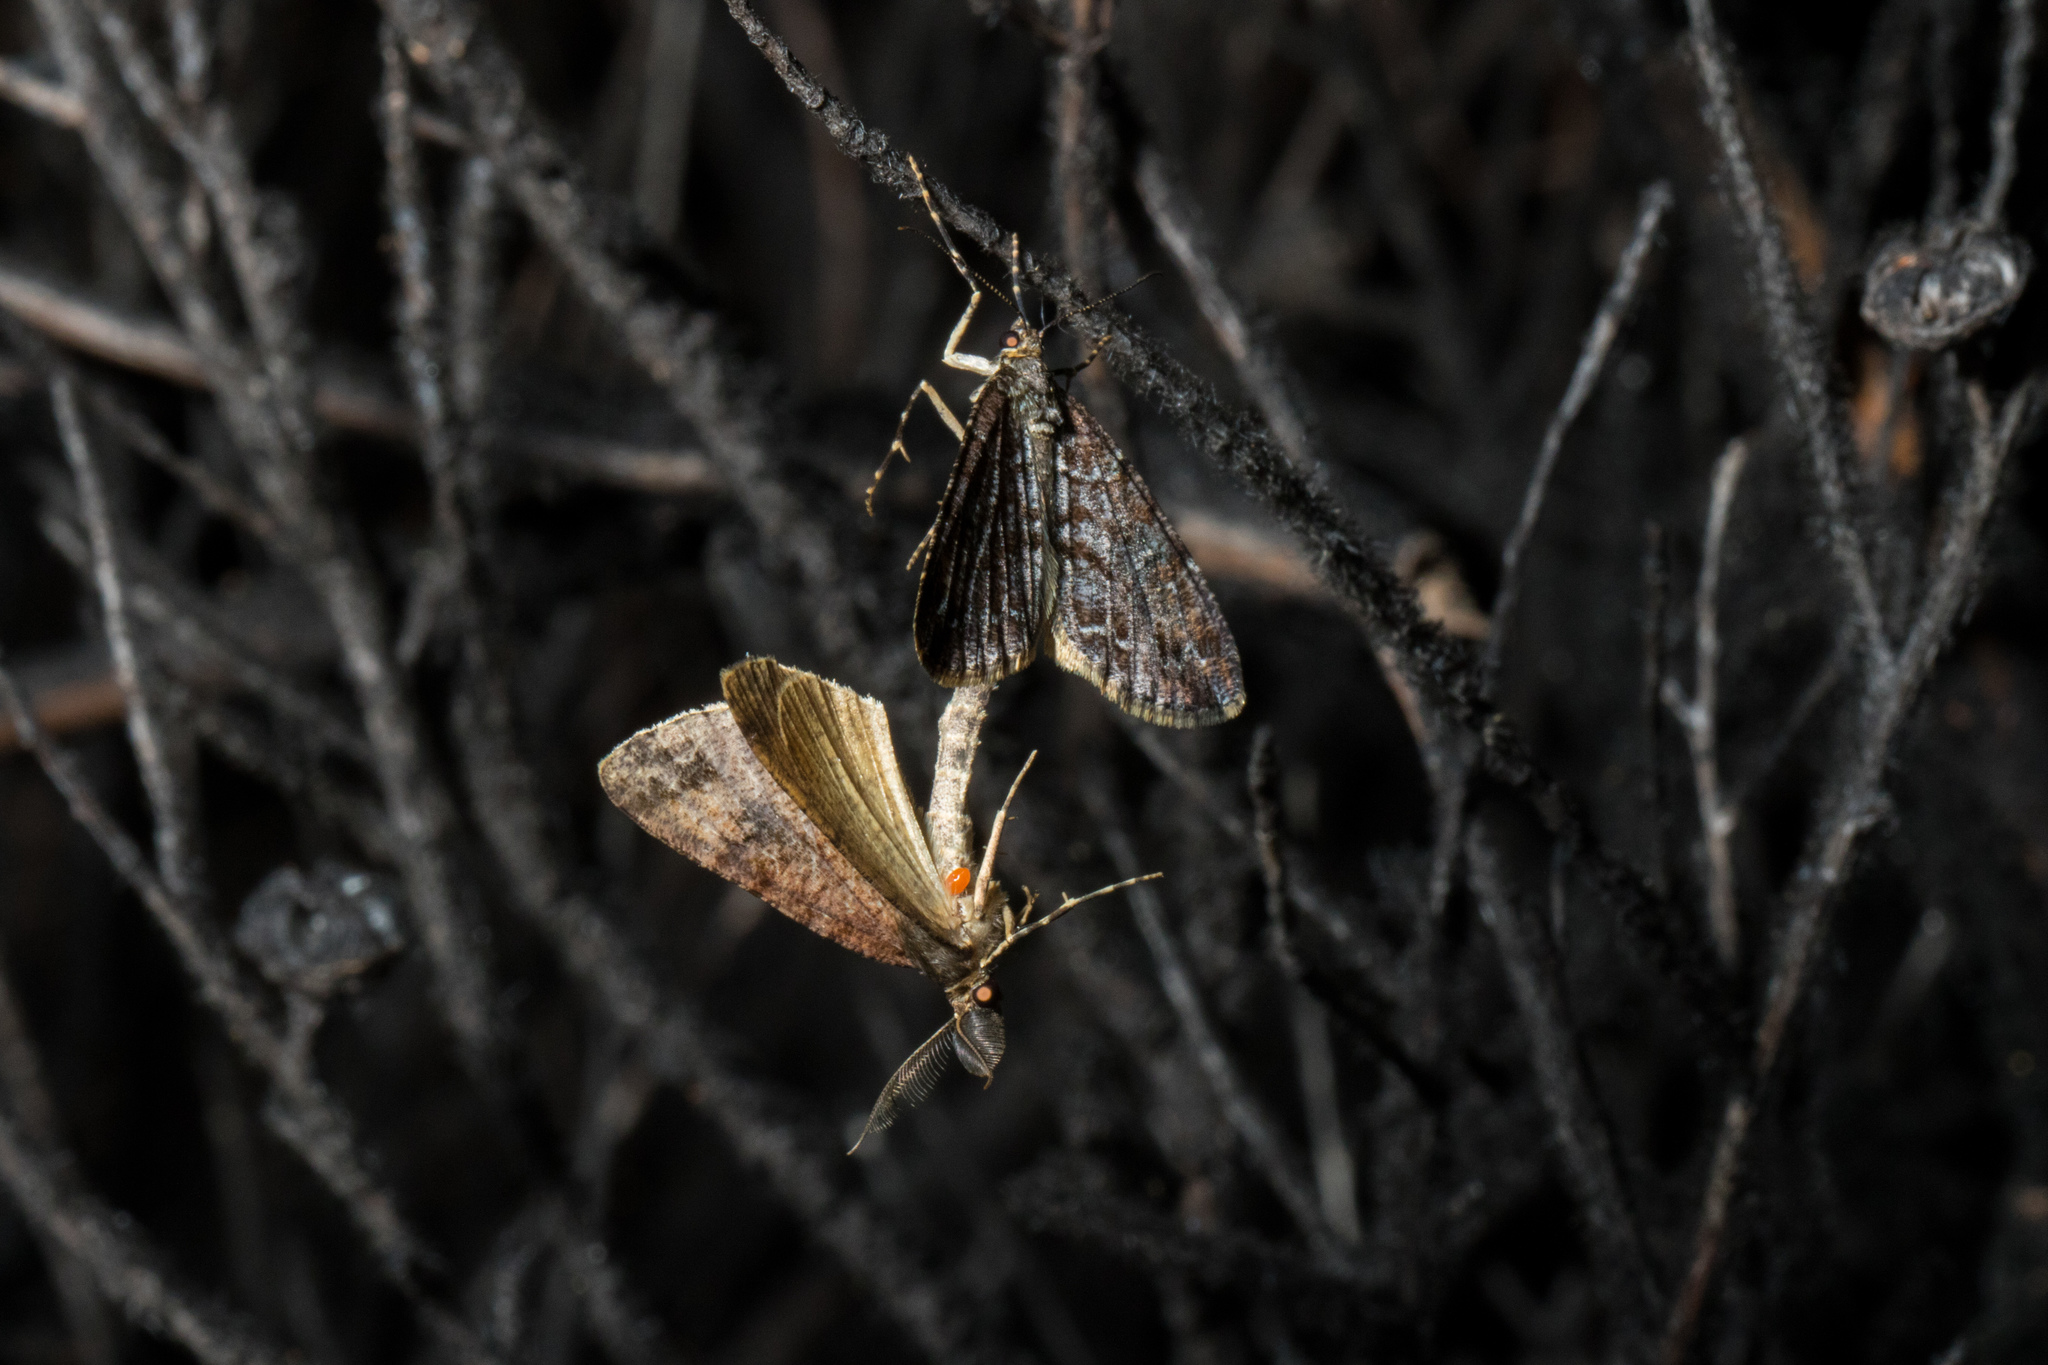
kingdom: Animalia
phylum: Arthropoda
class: Insecta
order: Lepidoptera
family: Geometridae
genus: Pseudocoremia
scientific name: Pseudocoremia productata
